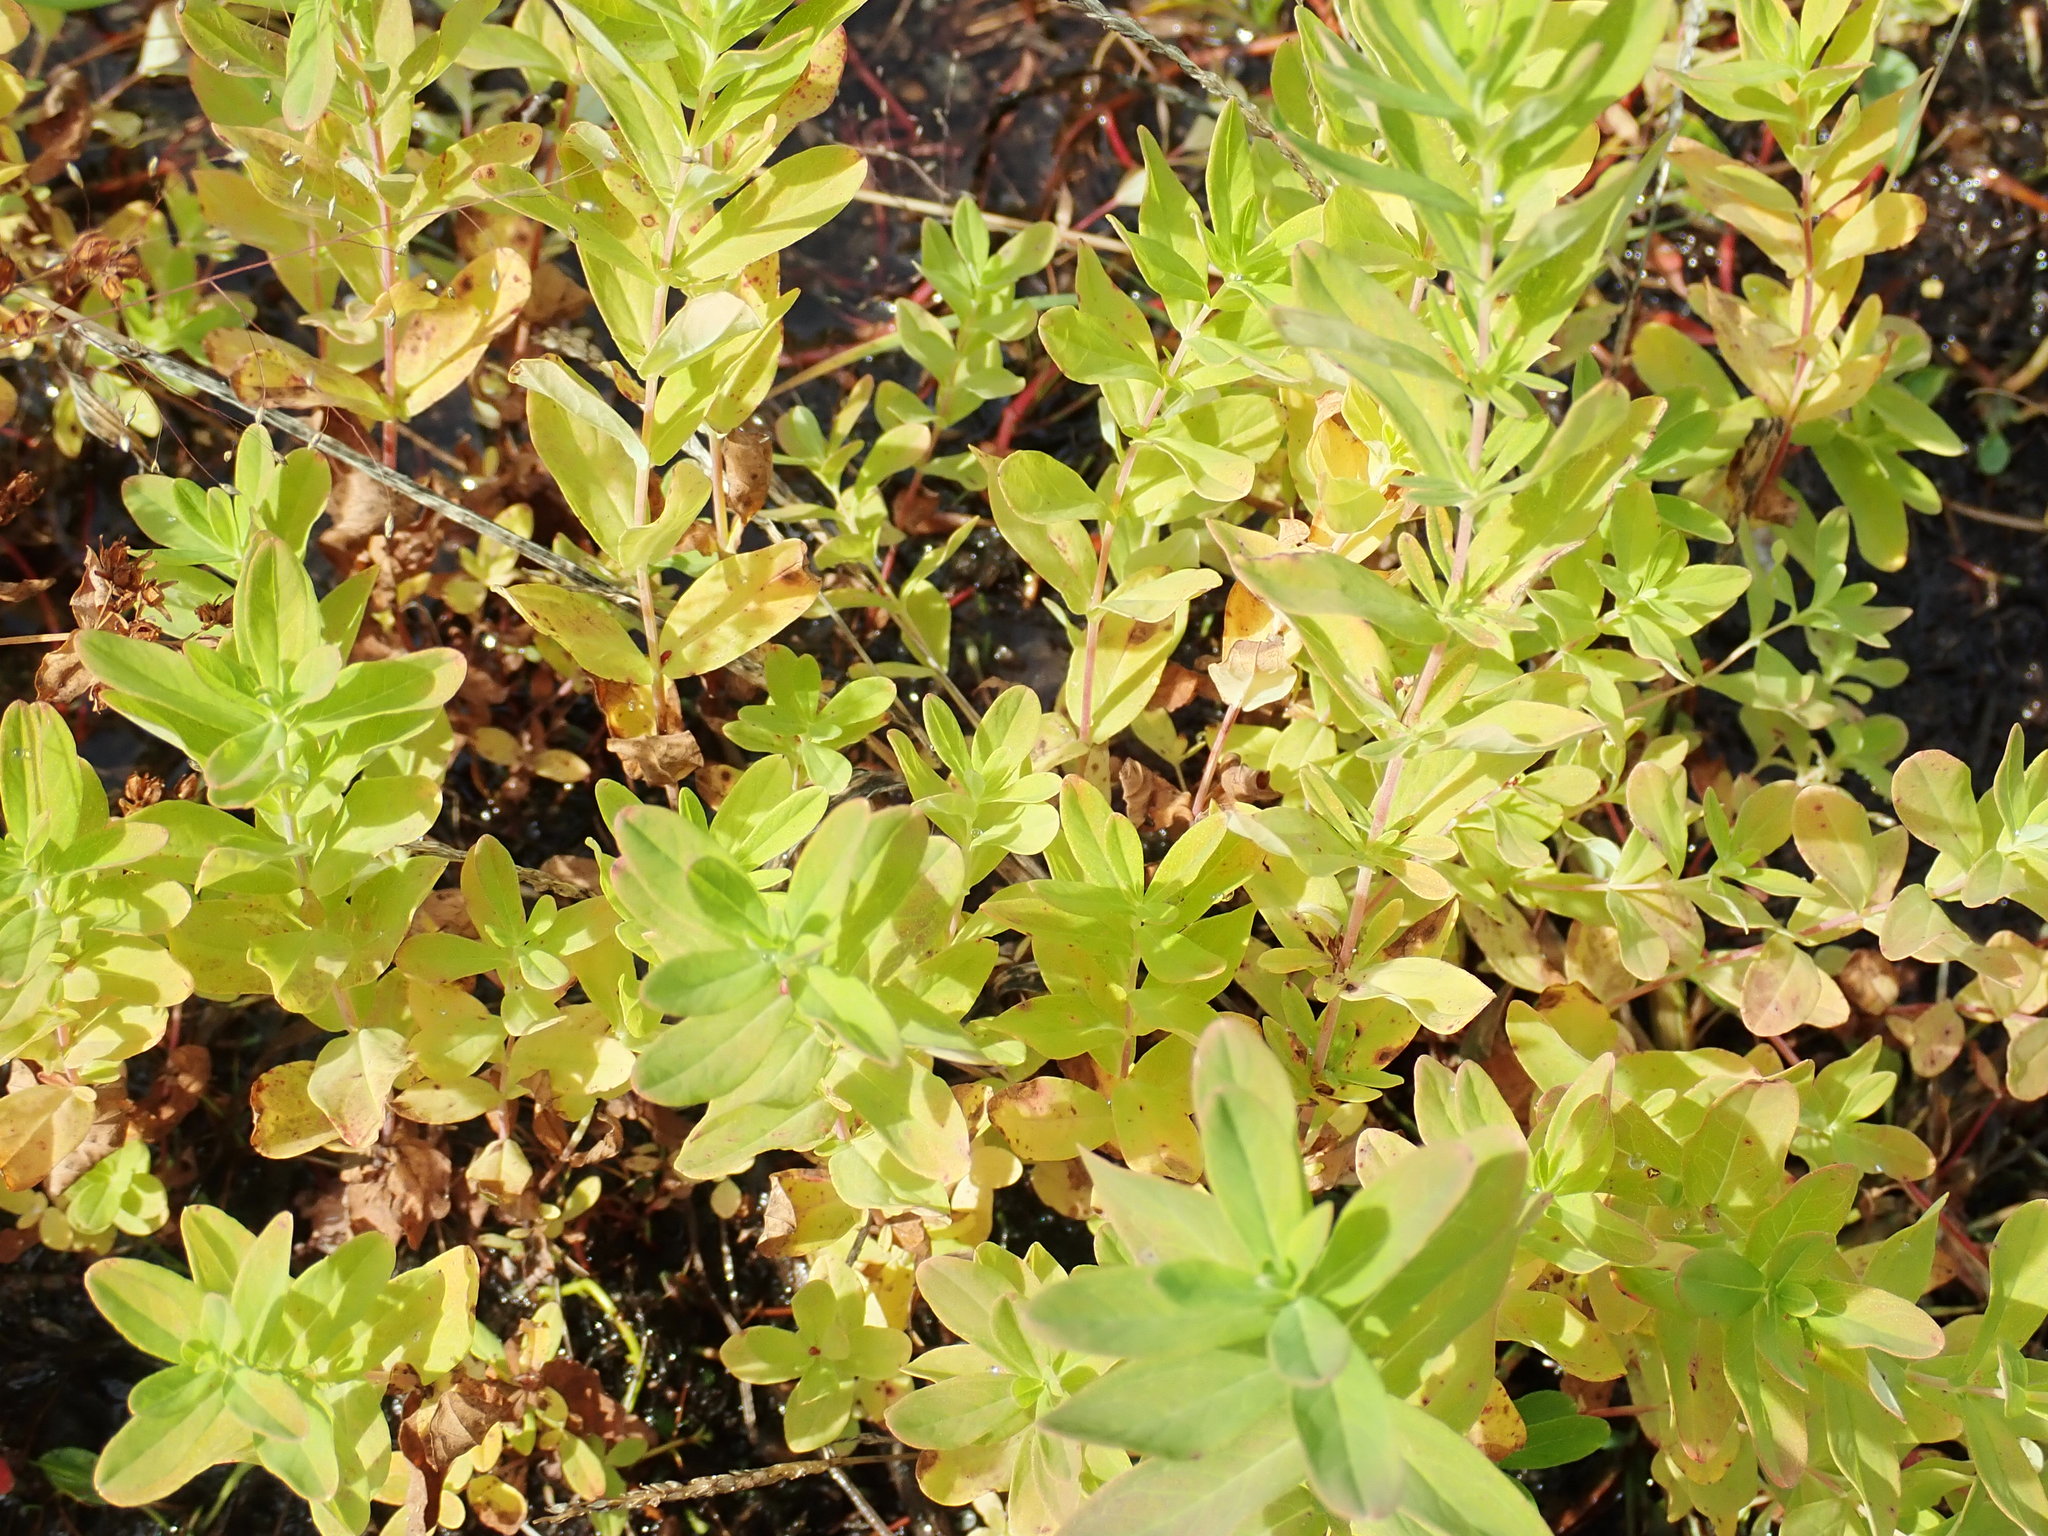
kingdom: Plantae
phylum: Tracheophyta
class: Magnoliopsida
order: Malpighiales
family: Hypericaceae
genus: Hypericum
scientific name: Hypericum
